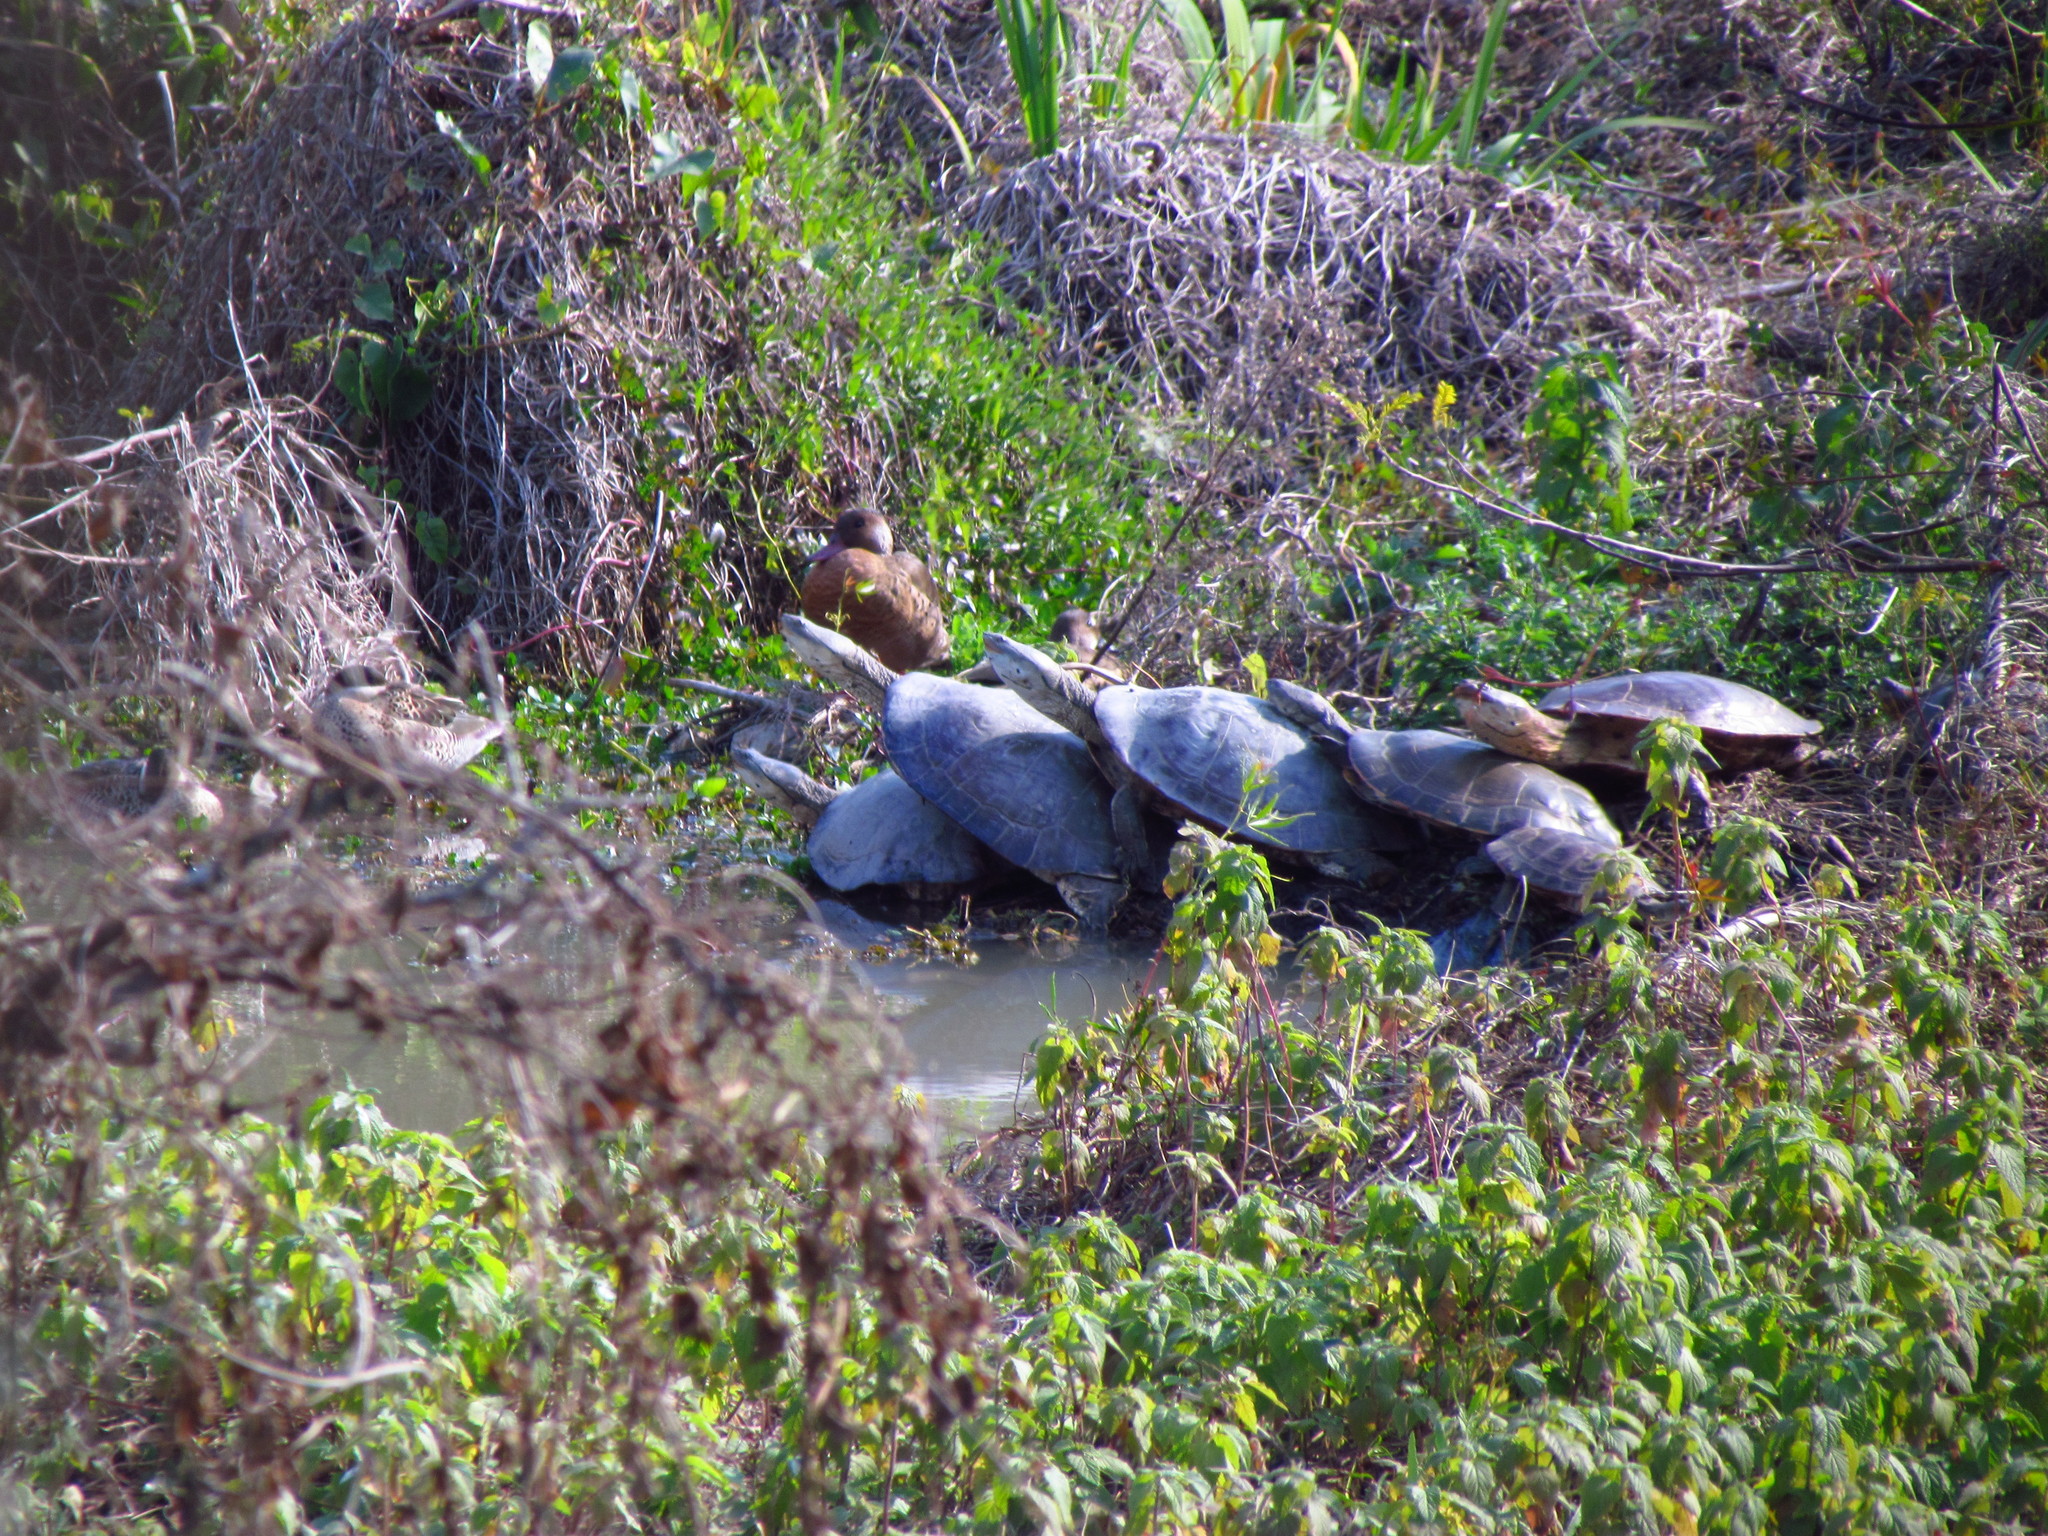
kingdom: Animalia
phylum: Chordata
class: Testudines
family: Chelidae
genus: Phrynops
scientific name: Phrynops hilarii
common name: Side-necked turtle of saint hillaire
